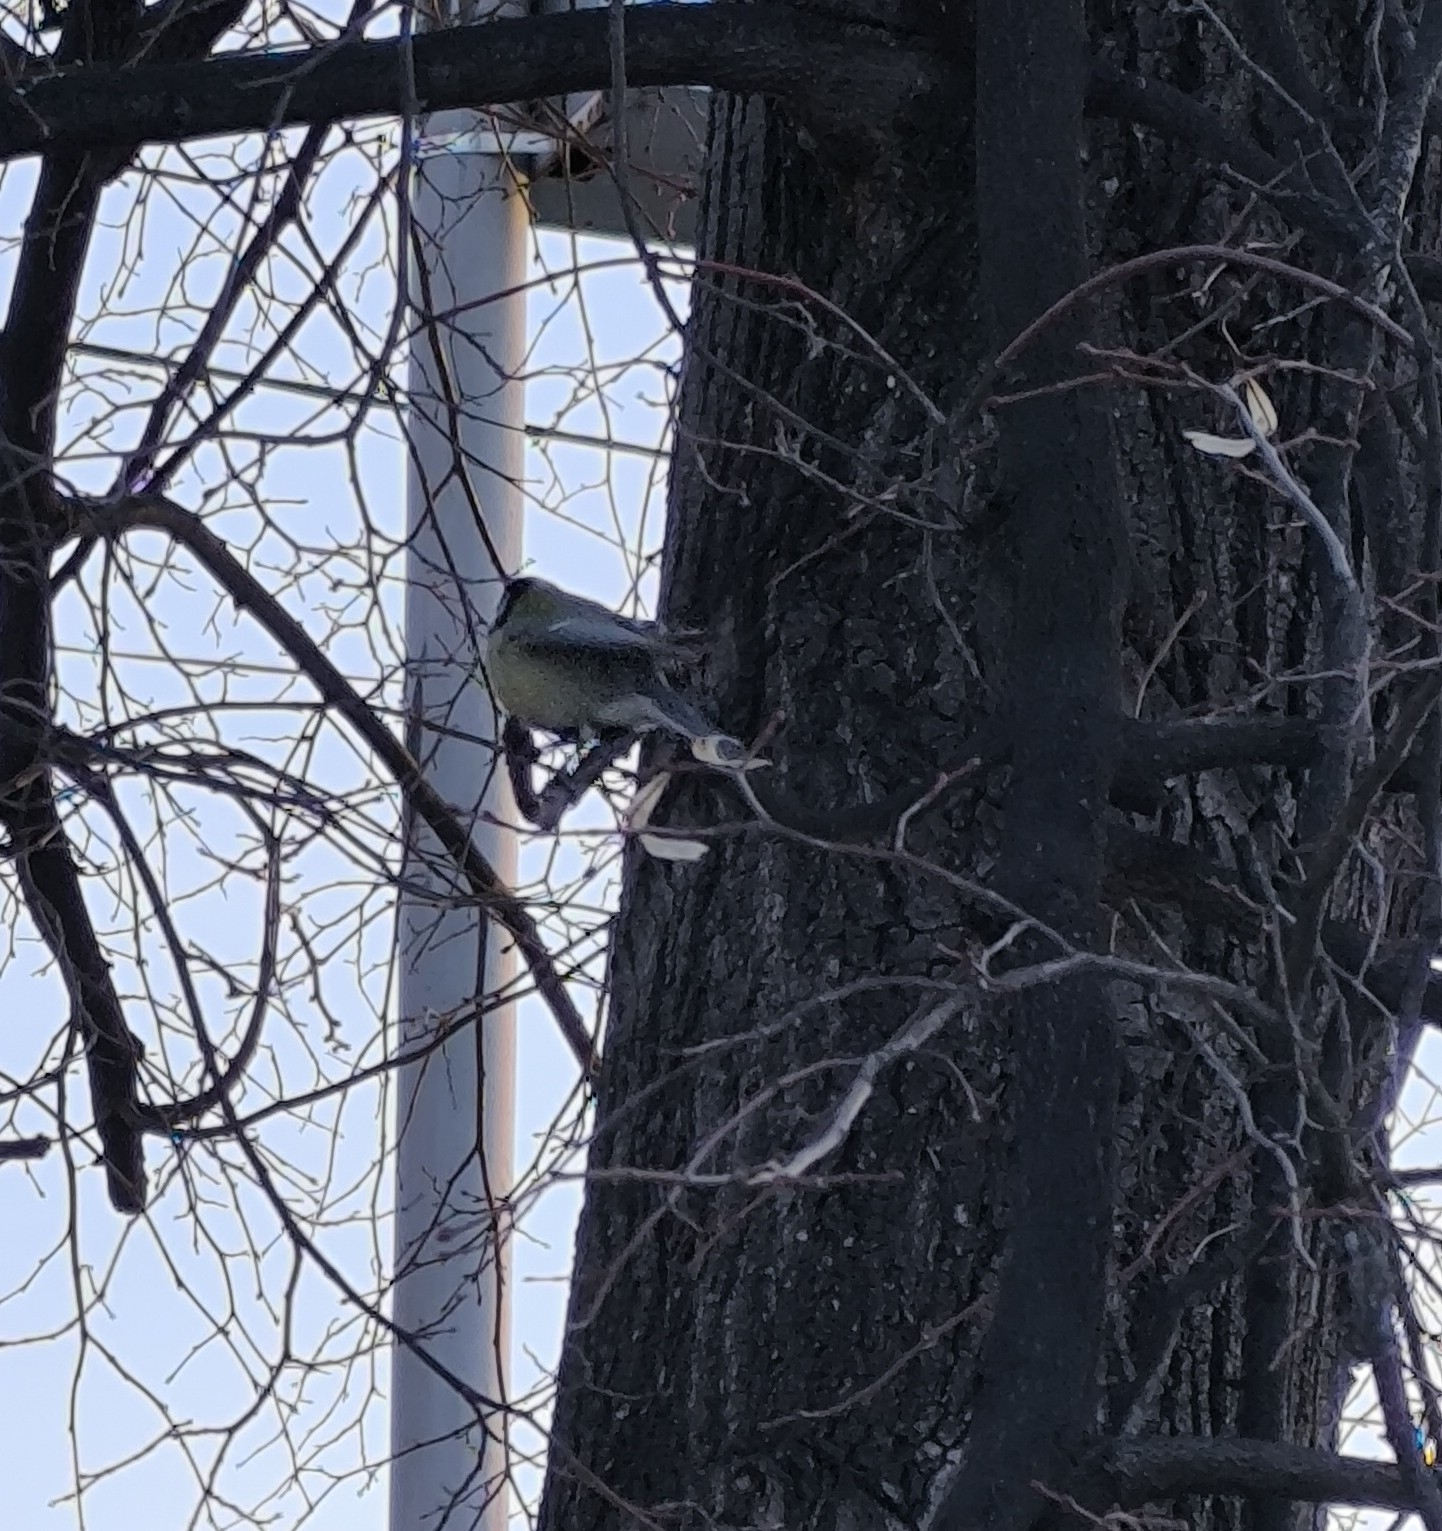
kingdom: Animalia
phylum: Chordata
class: Aves
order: Passeriformes
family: Paridae
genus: Parus
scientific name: Parus major
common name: Great tit
